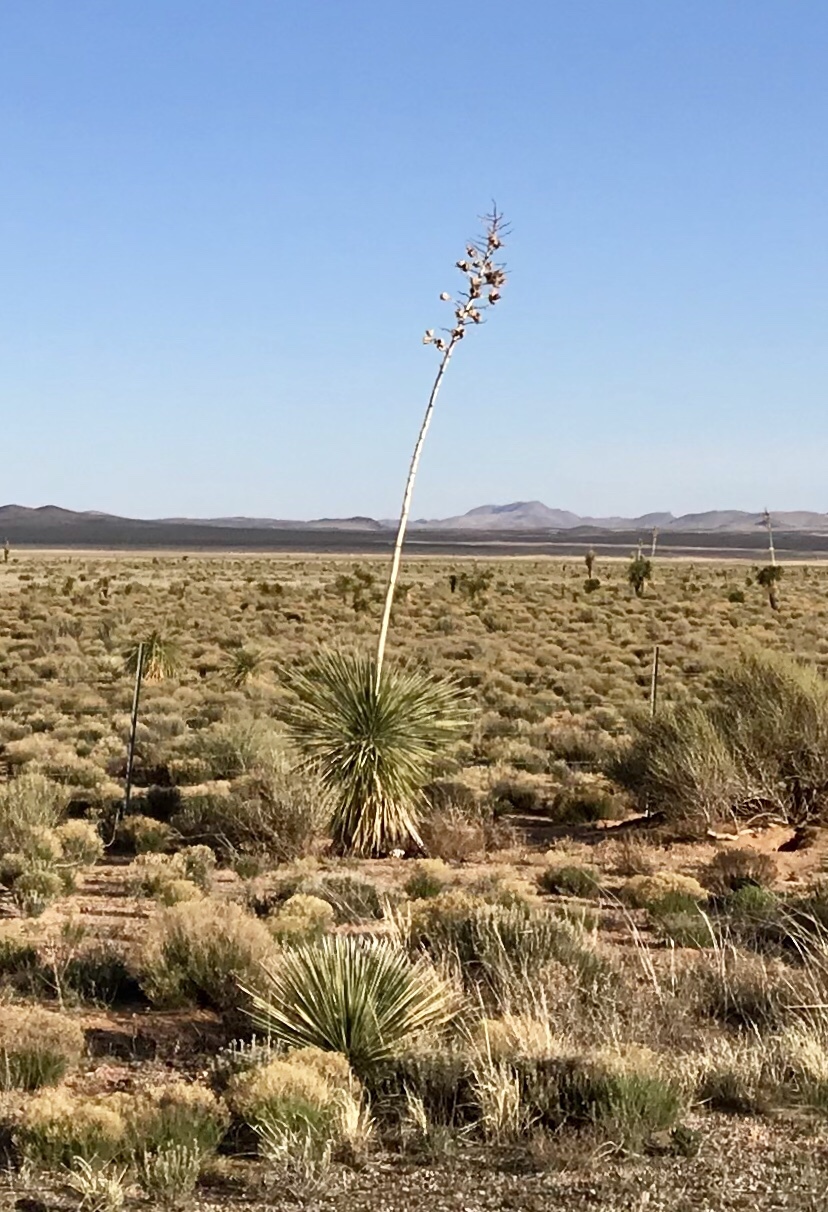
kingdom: Plantae
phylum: Tracheophyta
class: Liliopsida
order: Asparagales
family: Asparagaceae
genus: Yucca
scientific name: Yucca elata
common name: Palmella
